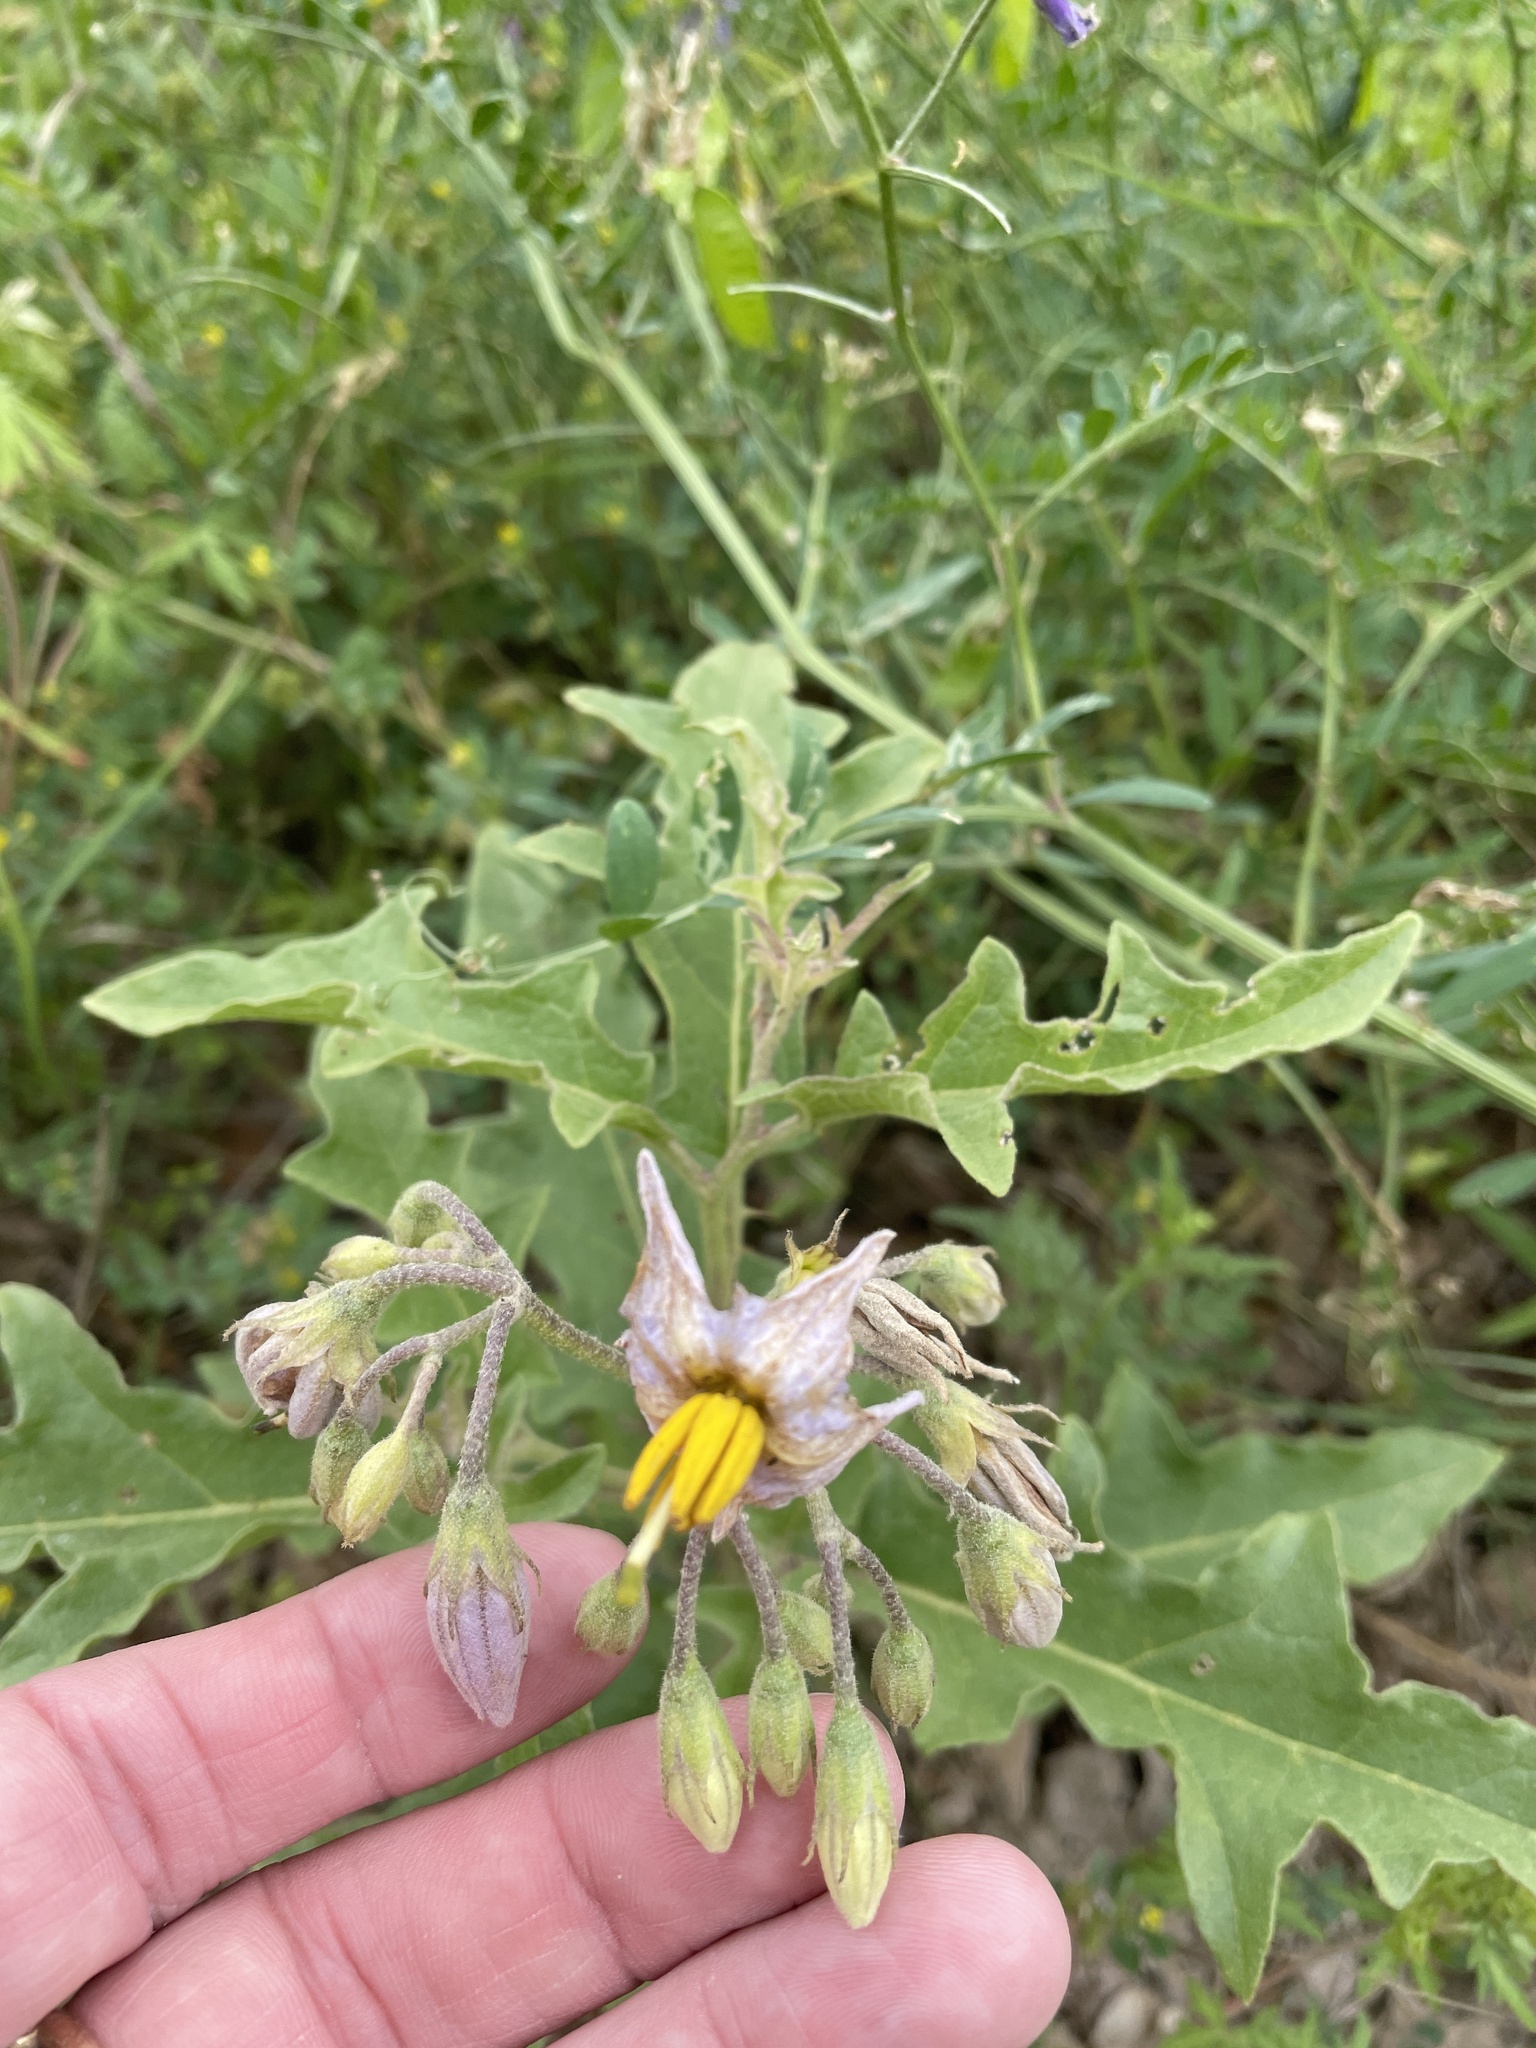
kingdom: Plantae
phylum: Tracheophyta
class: Magnoliopsida
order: Solanales
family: Solanaceae
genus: Solanum
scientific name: Solanum dimidiatum
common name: Carolina horse-nettle
